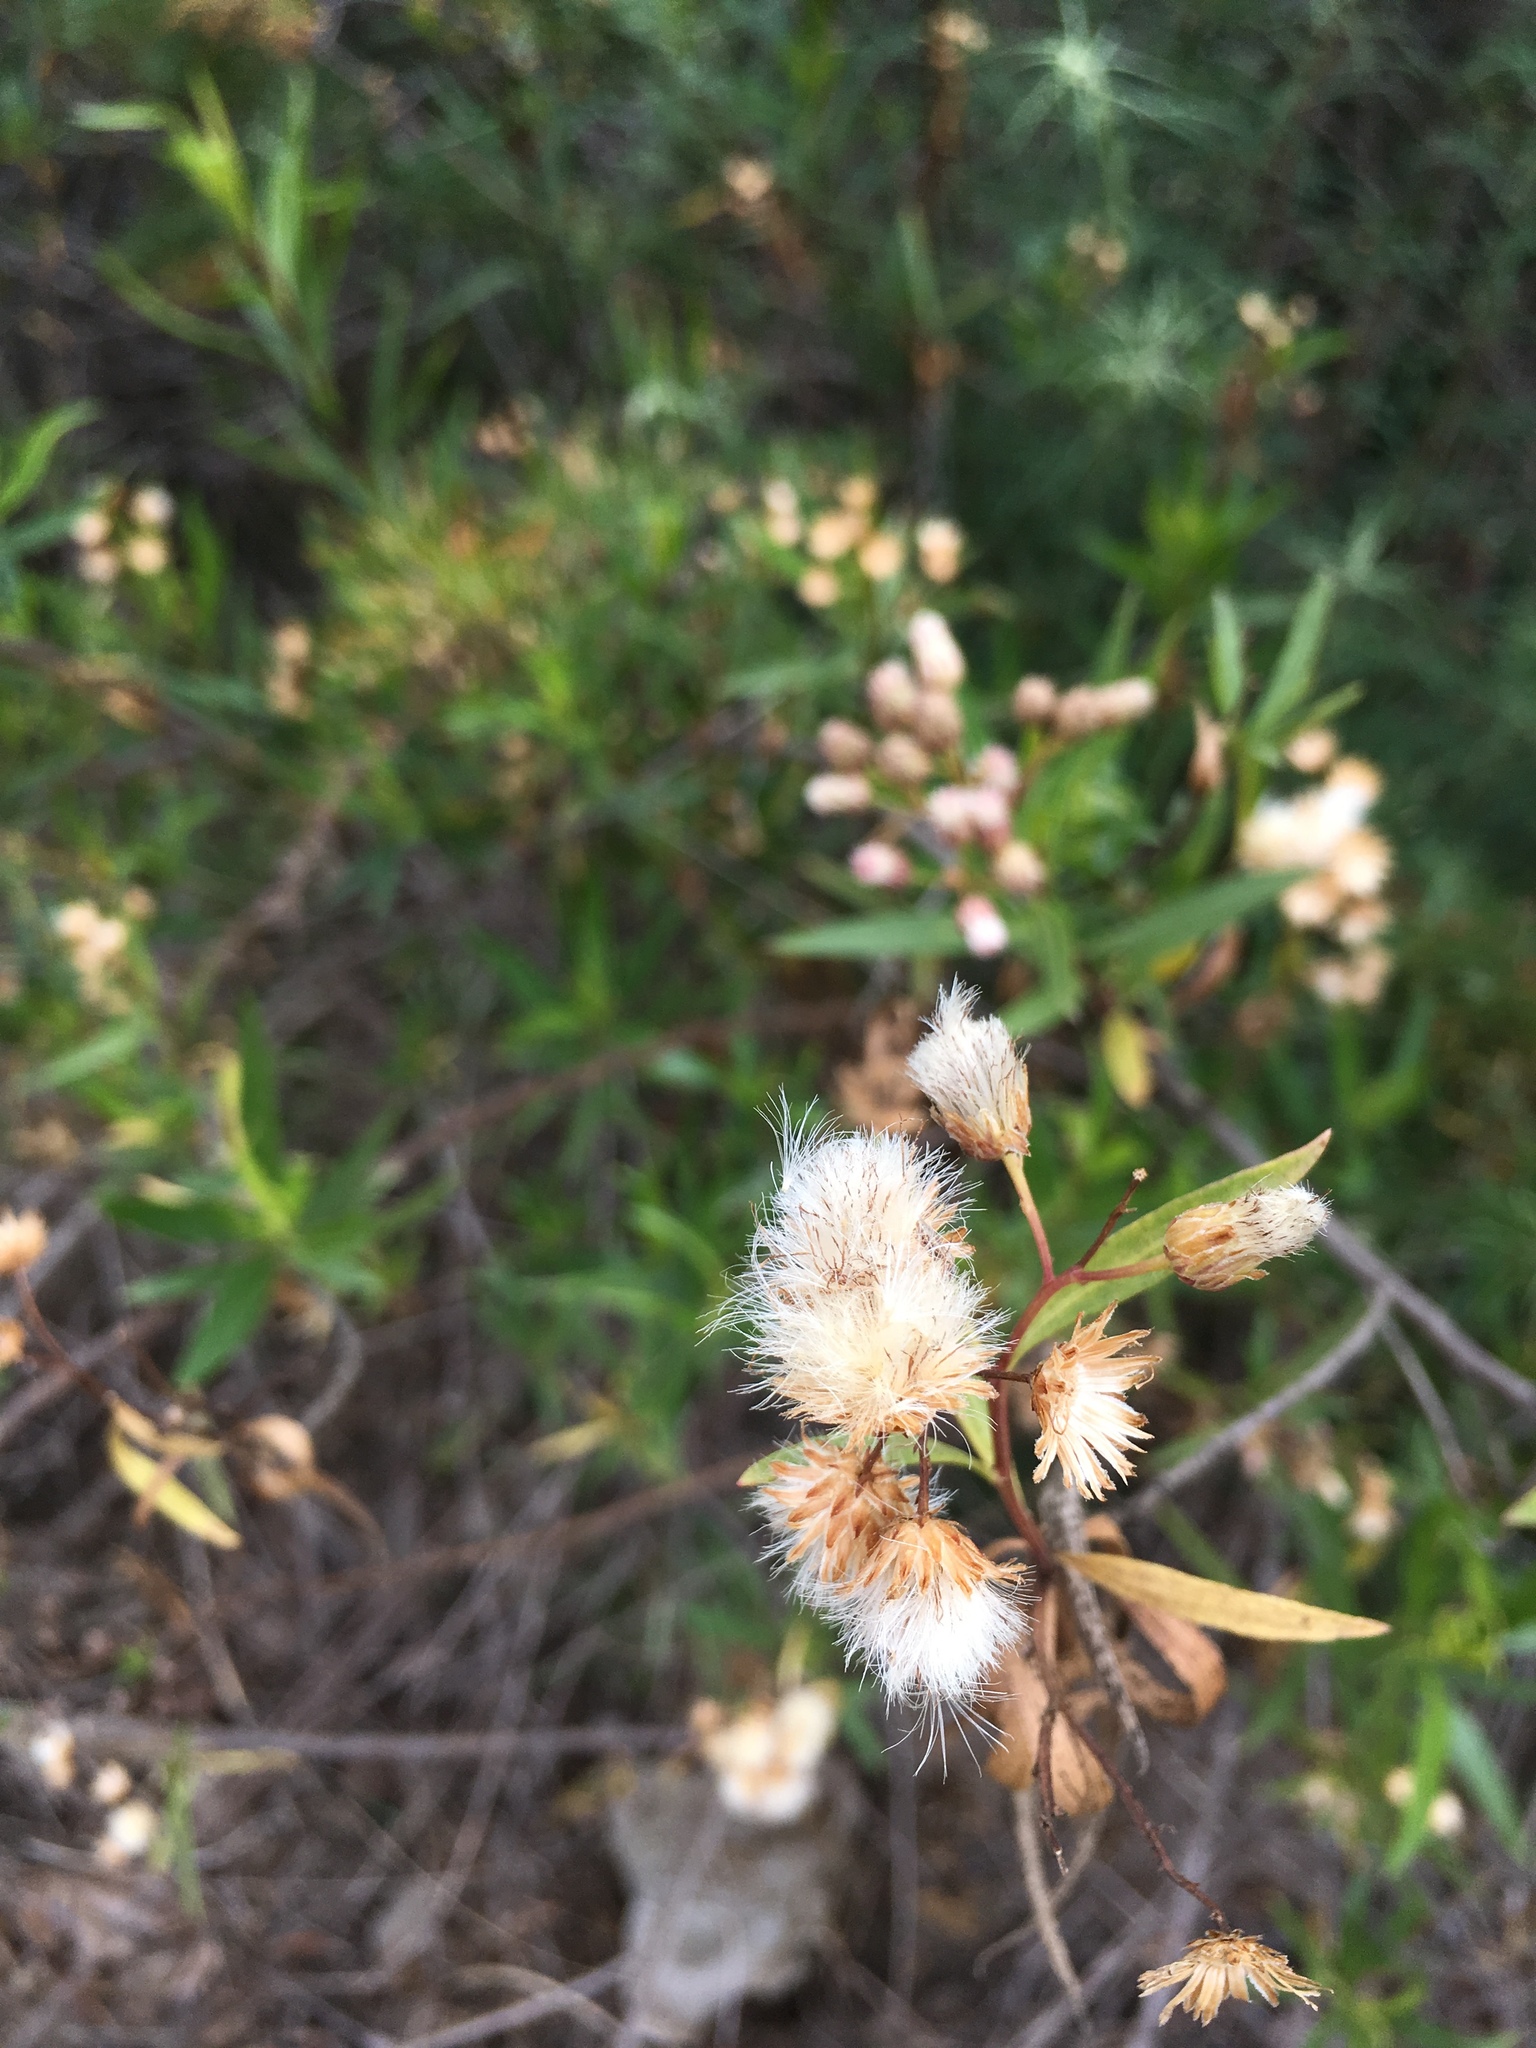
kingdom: Plantae
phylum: Tracheophyta
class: Magnoliopsida
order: Asterales
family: Asteraceae
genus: Baccharis
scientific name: Baccharis salicifolia
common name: Sticky baccharis
